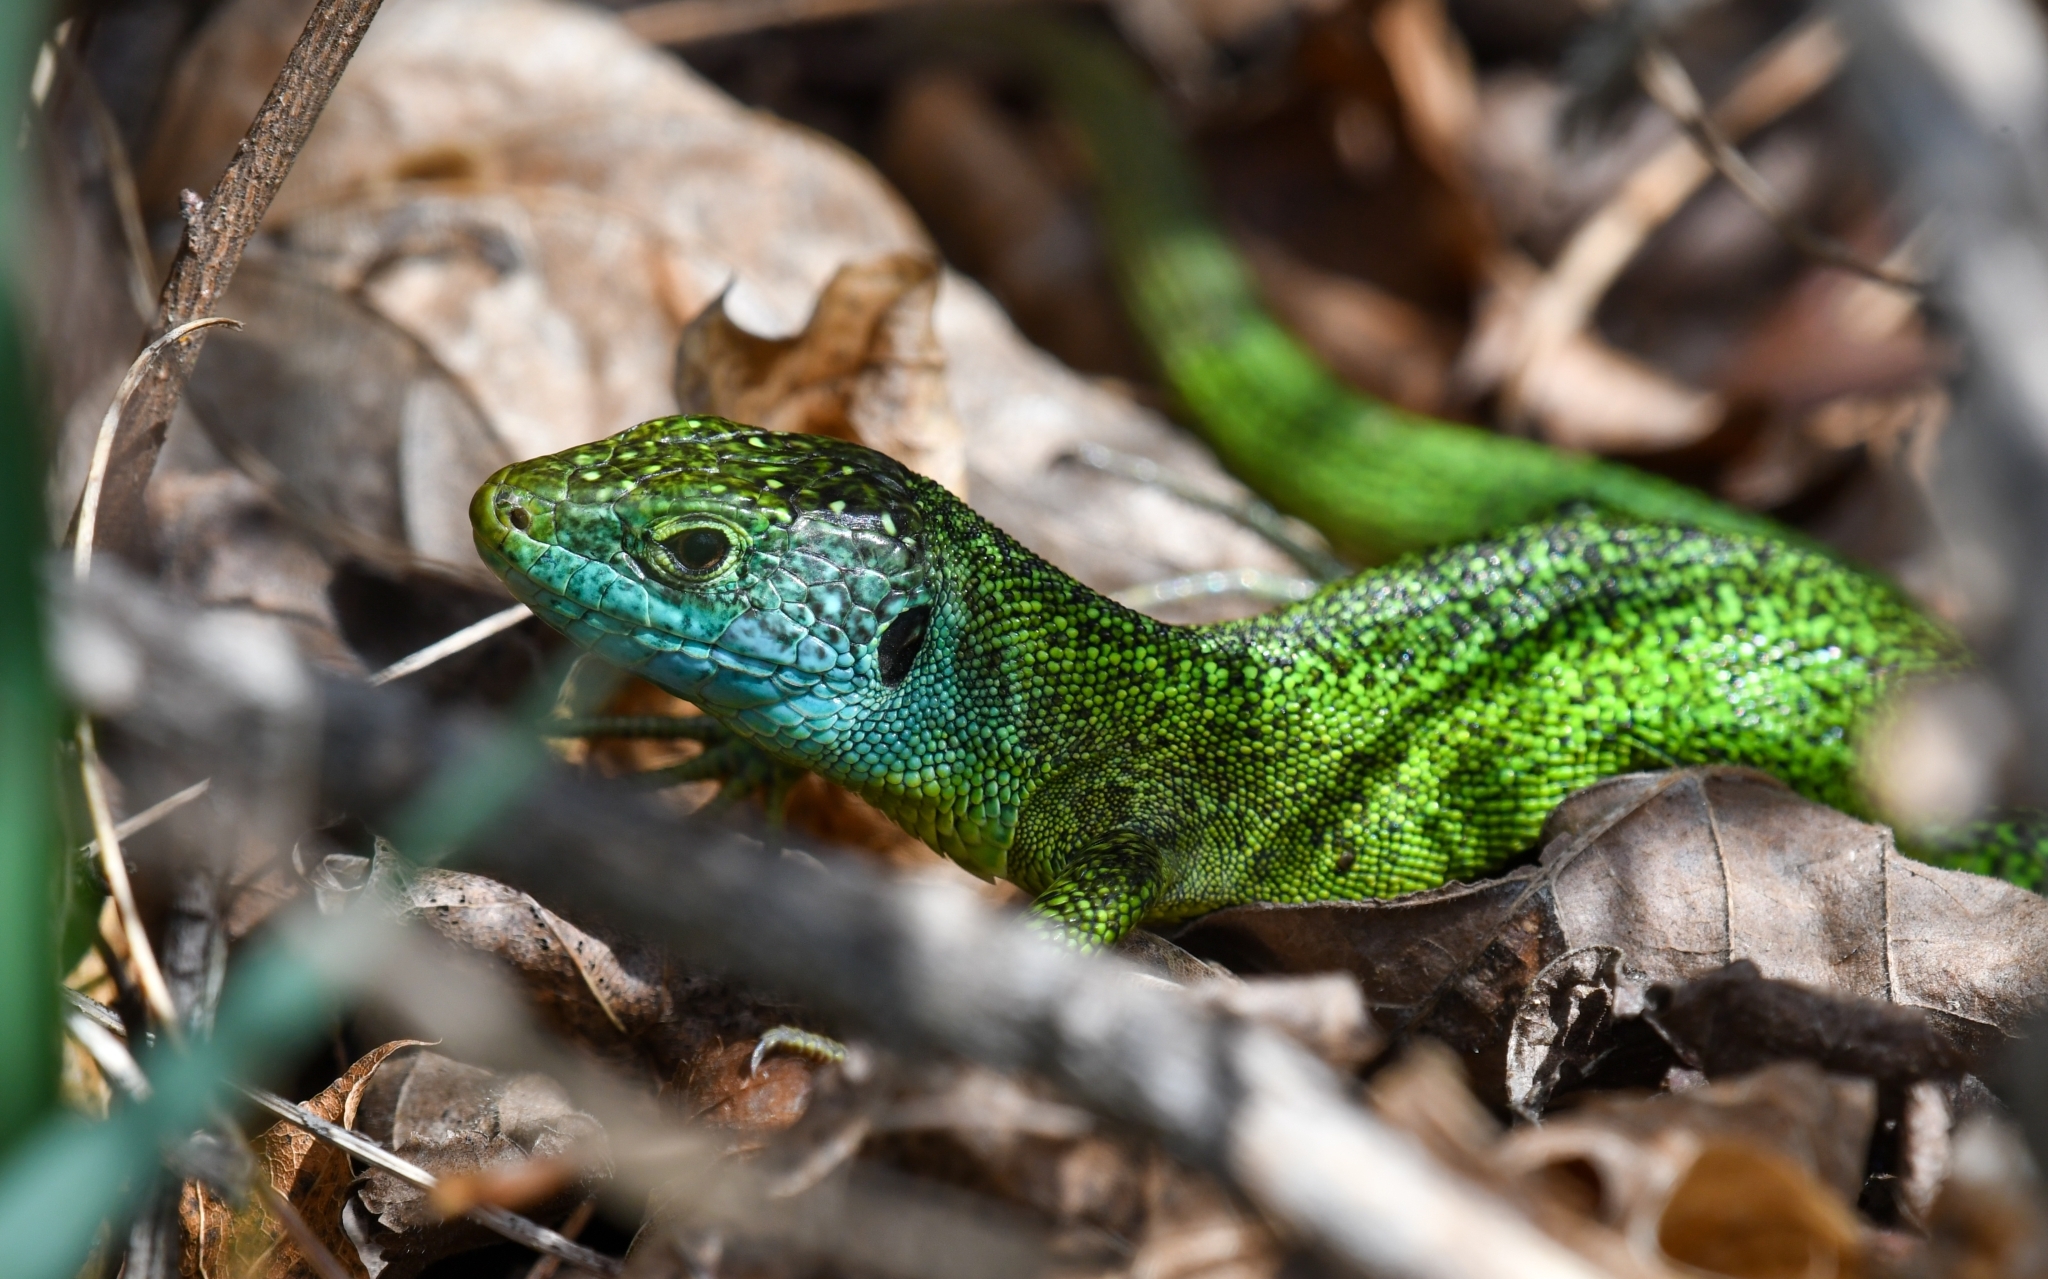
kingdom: Animalia
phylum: Chordata
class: Squamata
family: Lacertidae
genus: Lacerta
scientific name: Lacerta bilineata
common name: Western green lizard
